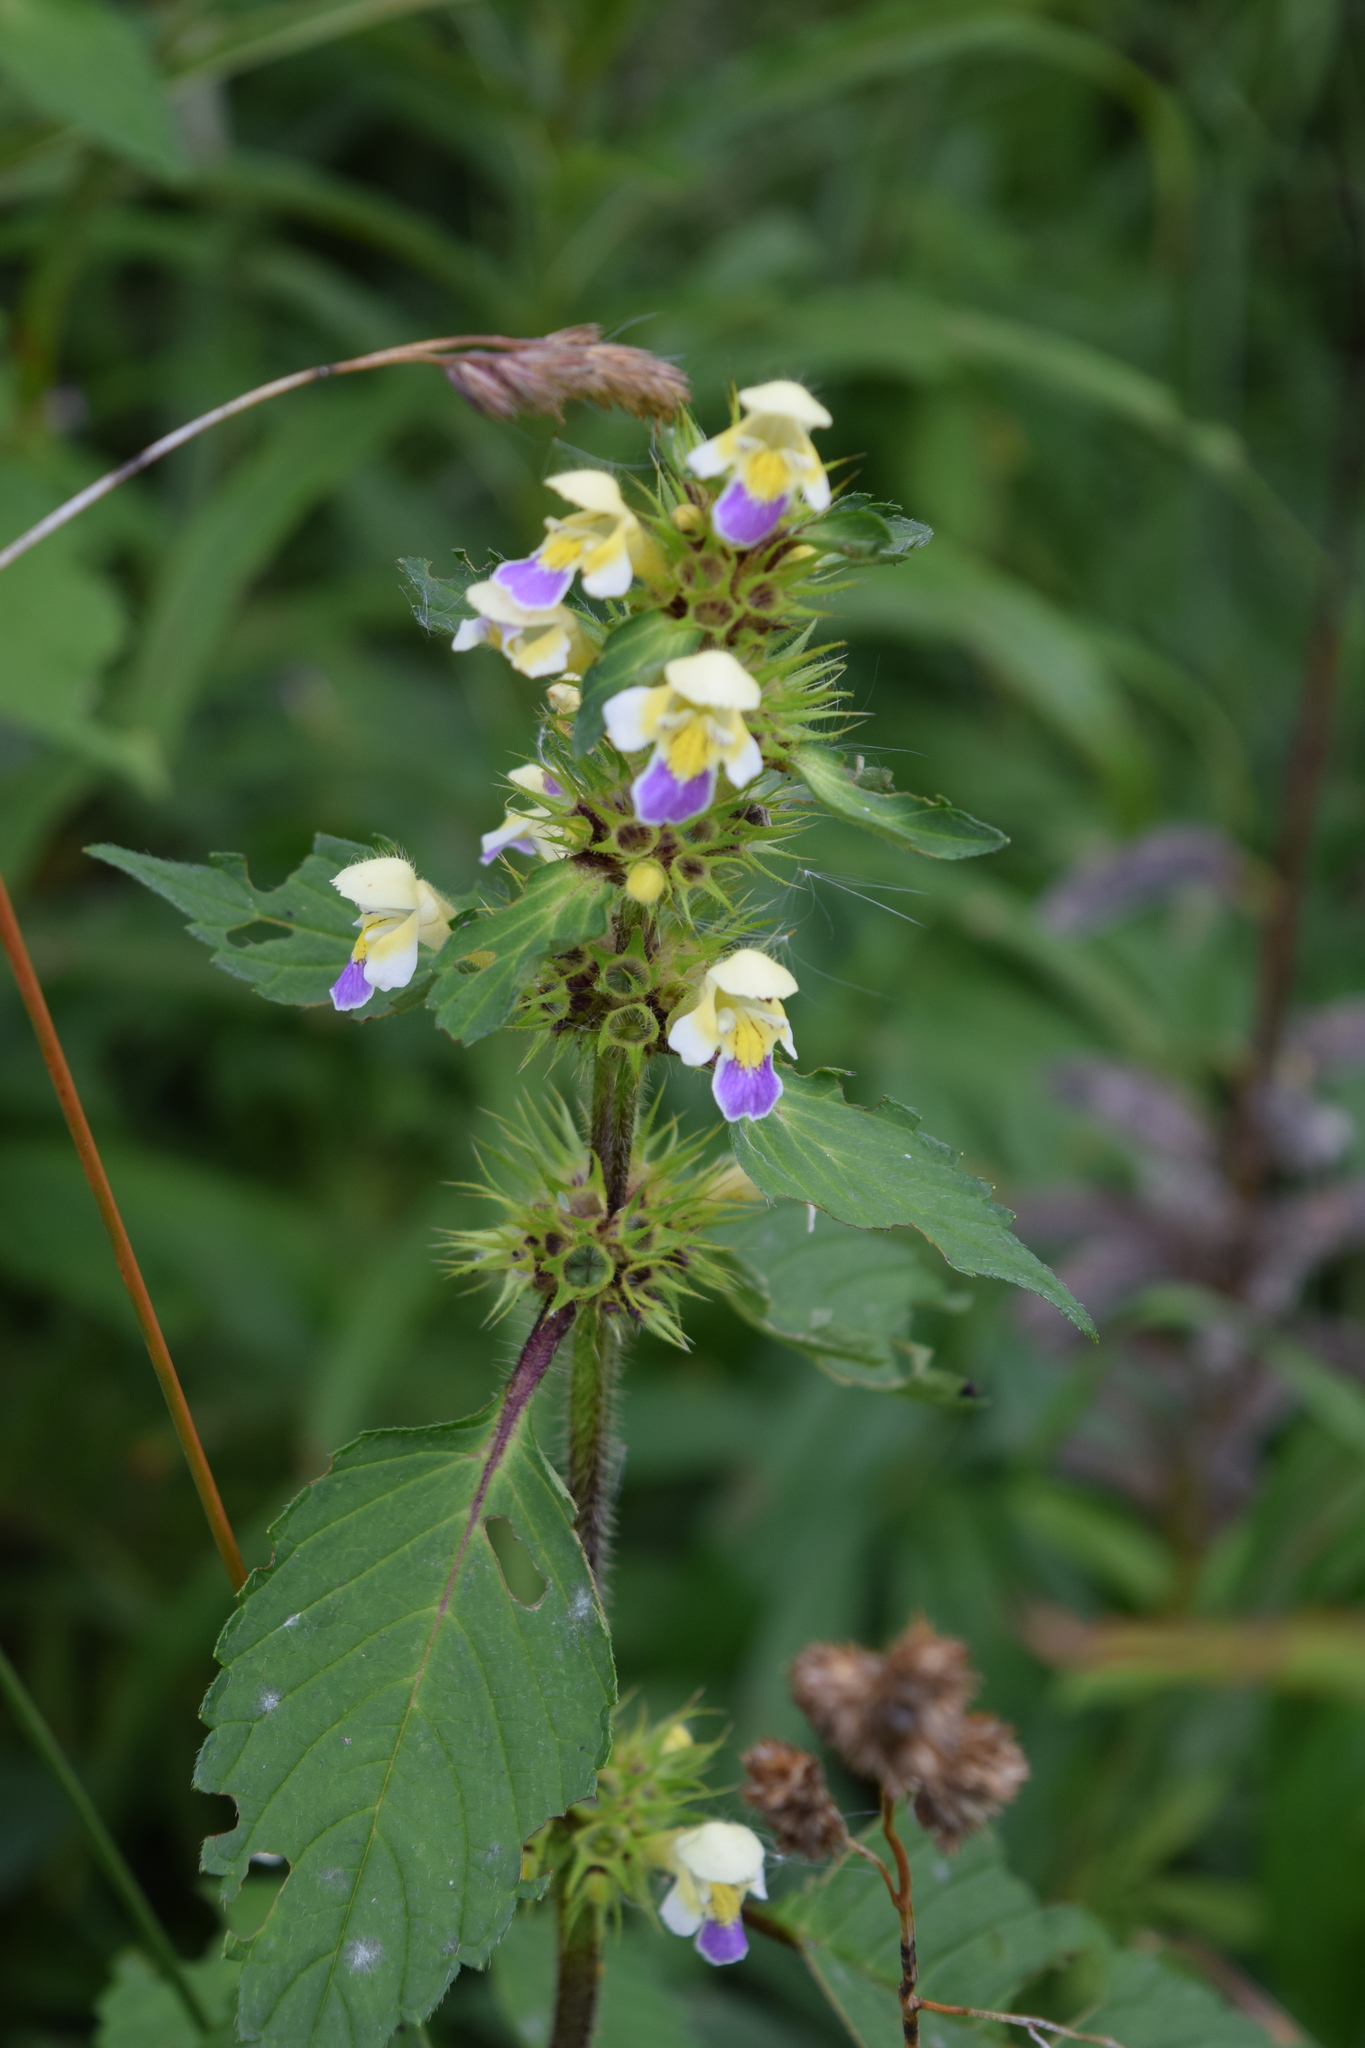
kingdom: Plantae
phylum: Tracheophyta
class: Magnoliopsida
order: Lamiales
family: Lamiaceae
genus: Galeopsis
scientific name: Galeopsis speciosa
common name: Large-flowered hemp-nettle
